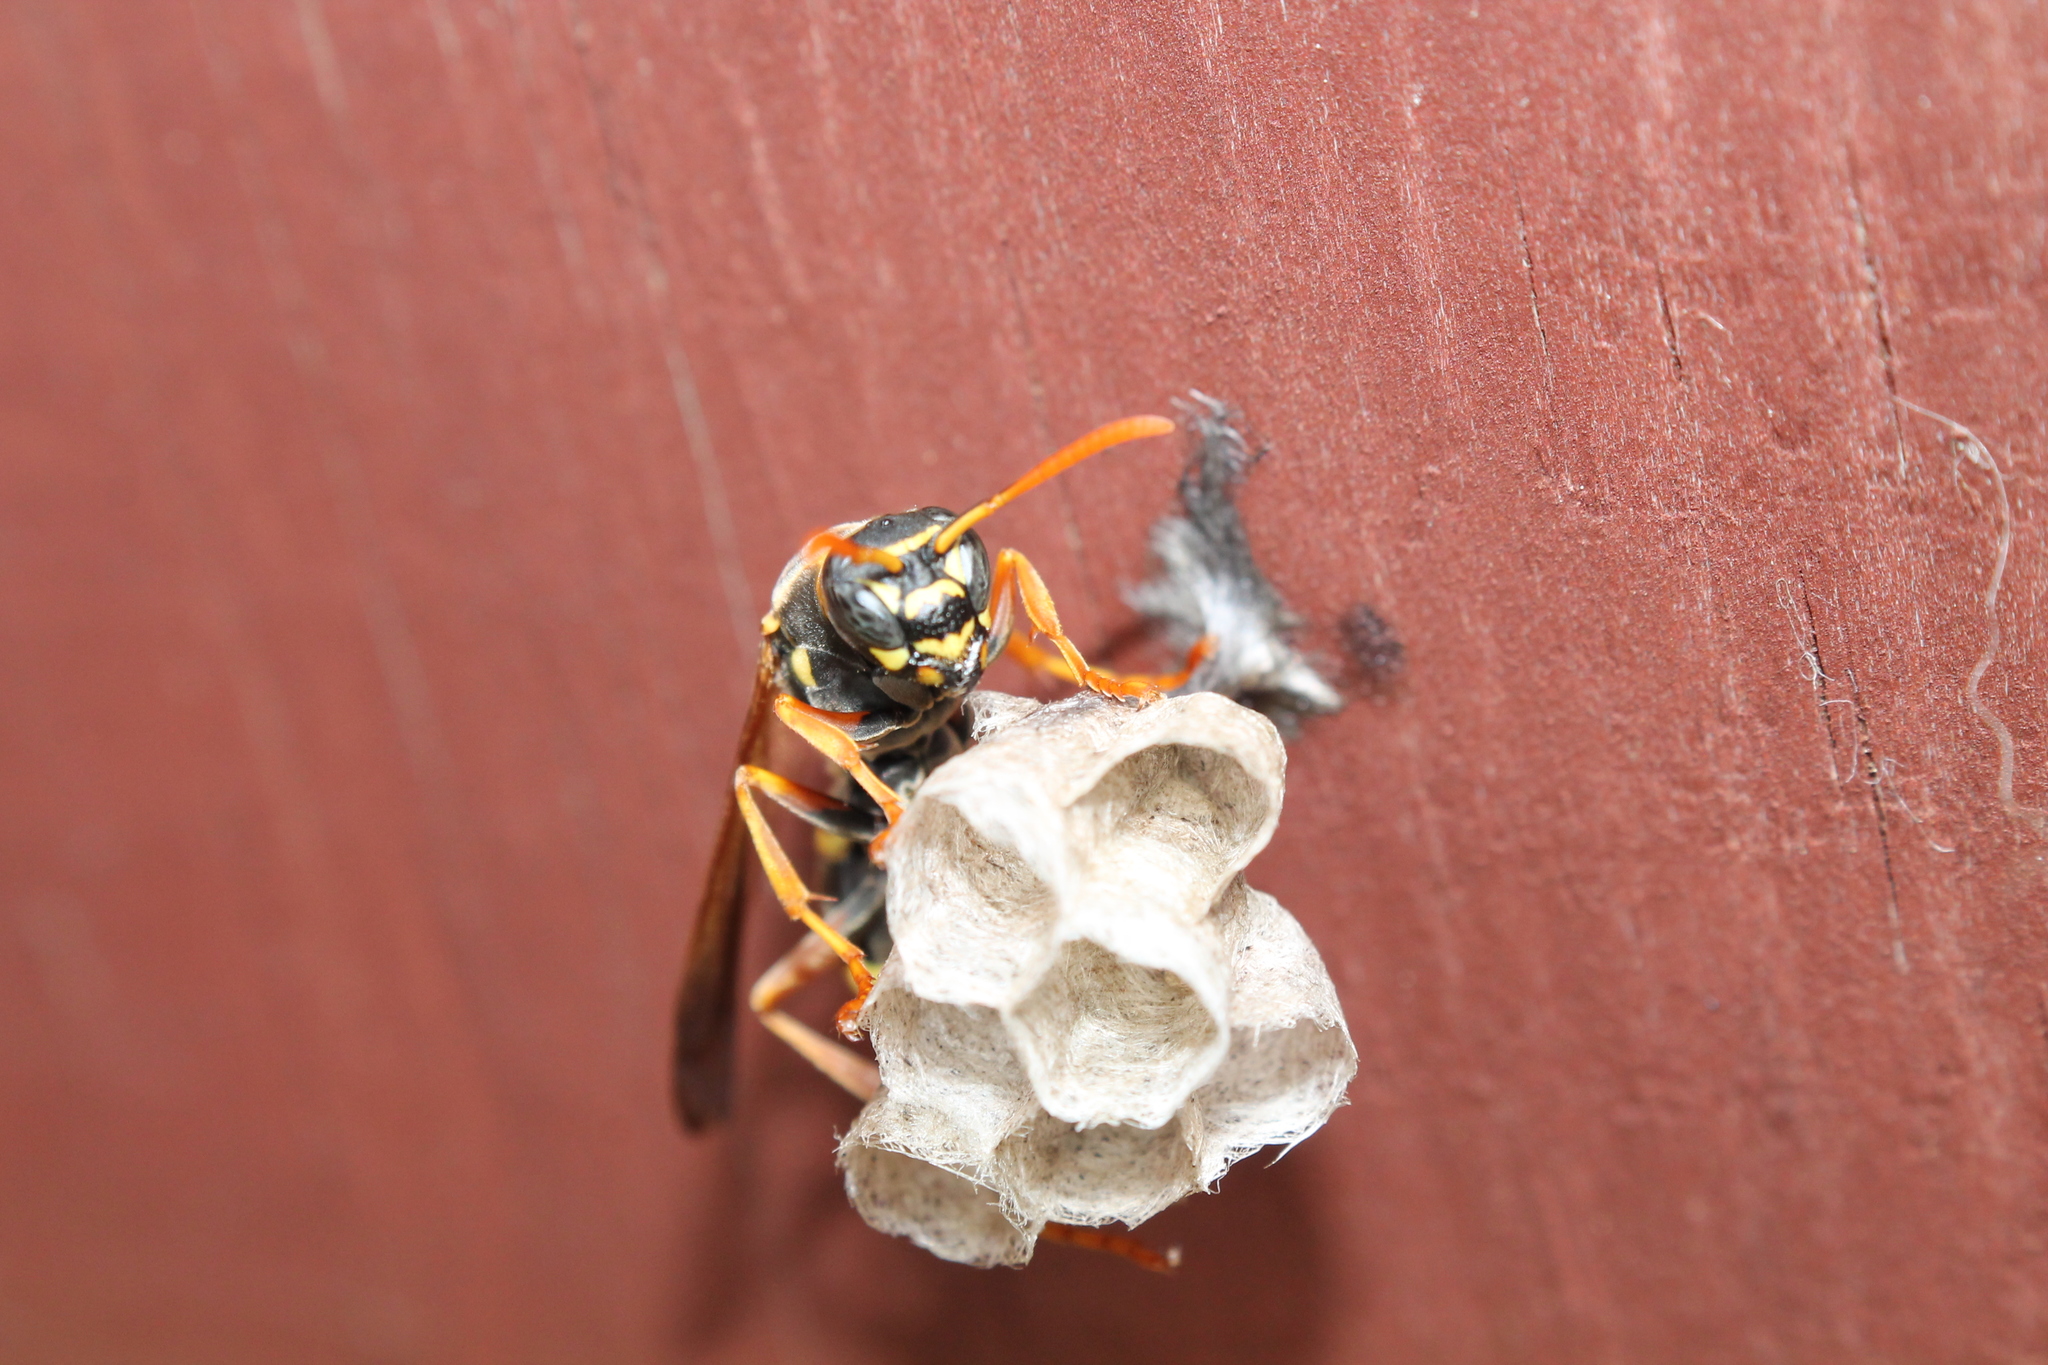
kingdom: Animalia
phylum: Arthropoda
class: Insecta
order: Hymenoptera
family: Eumenidae
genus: Polistes
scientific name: Polistes chinensis
